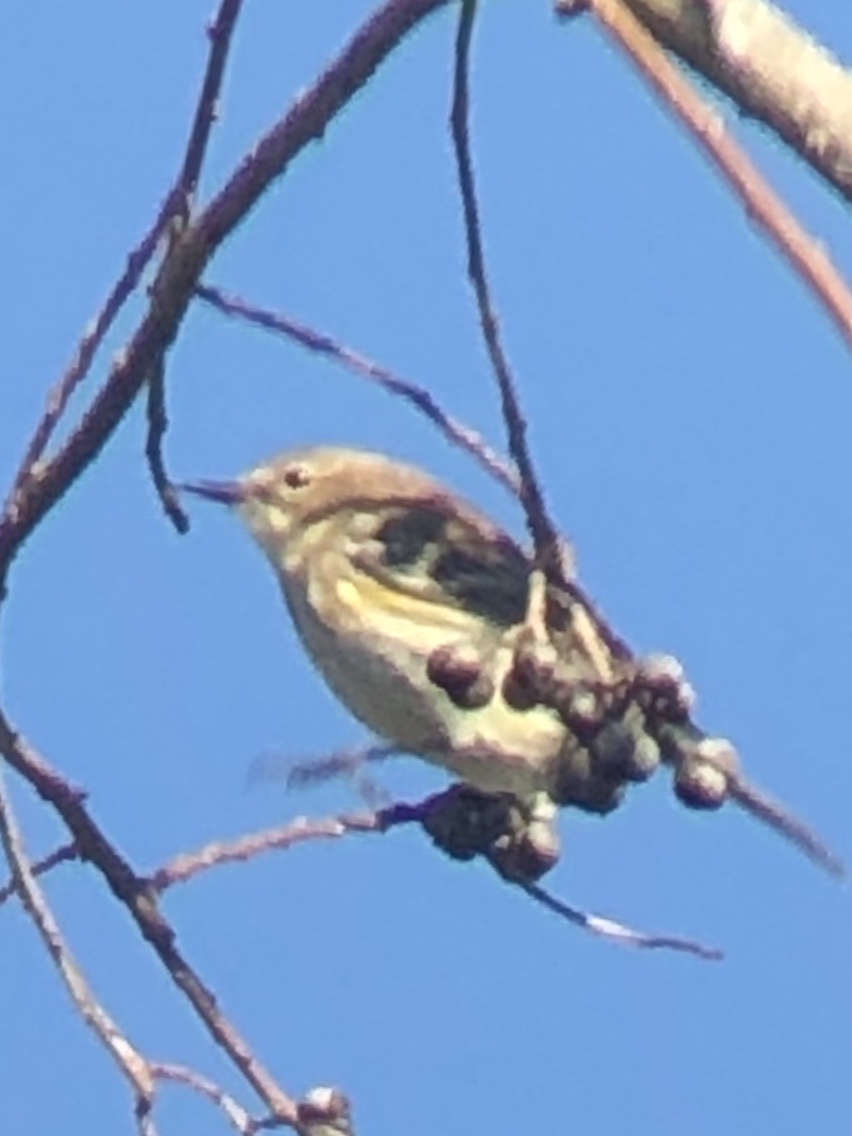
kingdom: Animalia
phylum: Chordata
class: Aves
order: Passeriformes
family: Parulidae
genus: Setophaga
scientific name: Setophaga coronata
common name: Myrtle warbler
